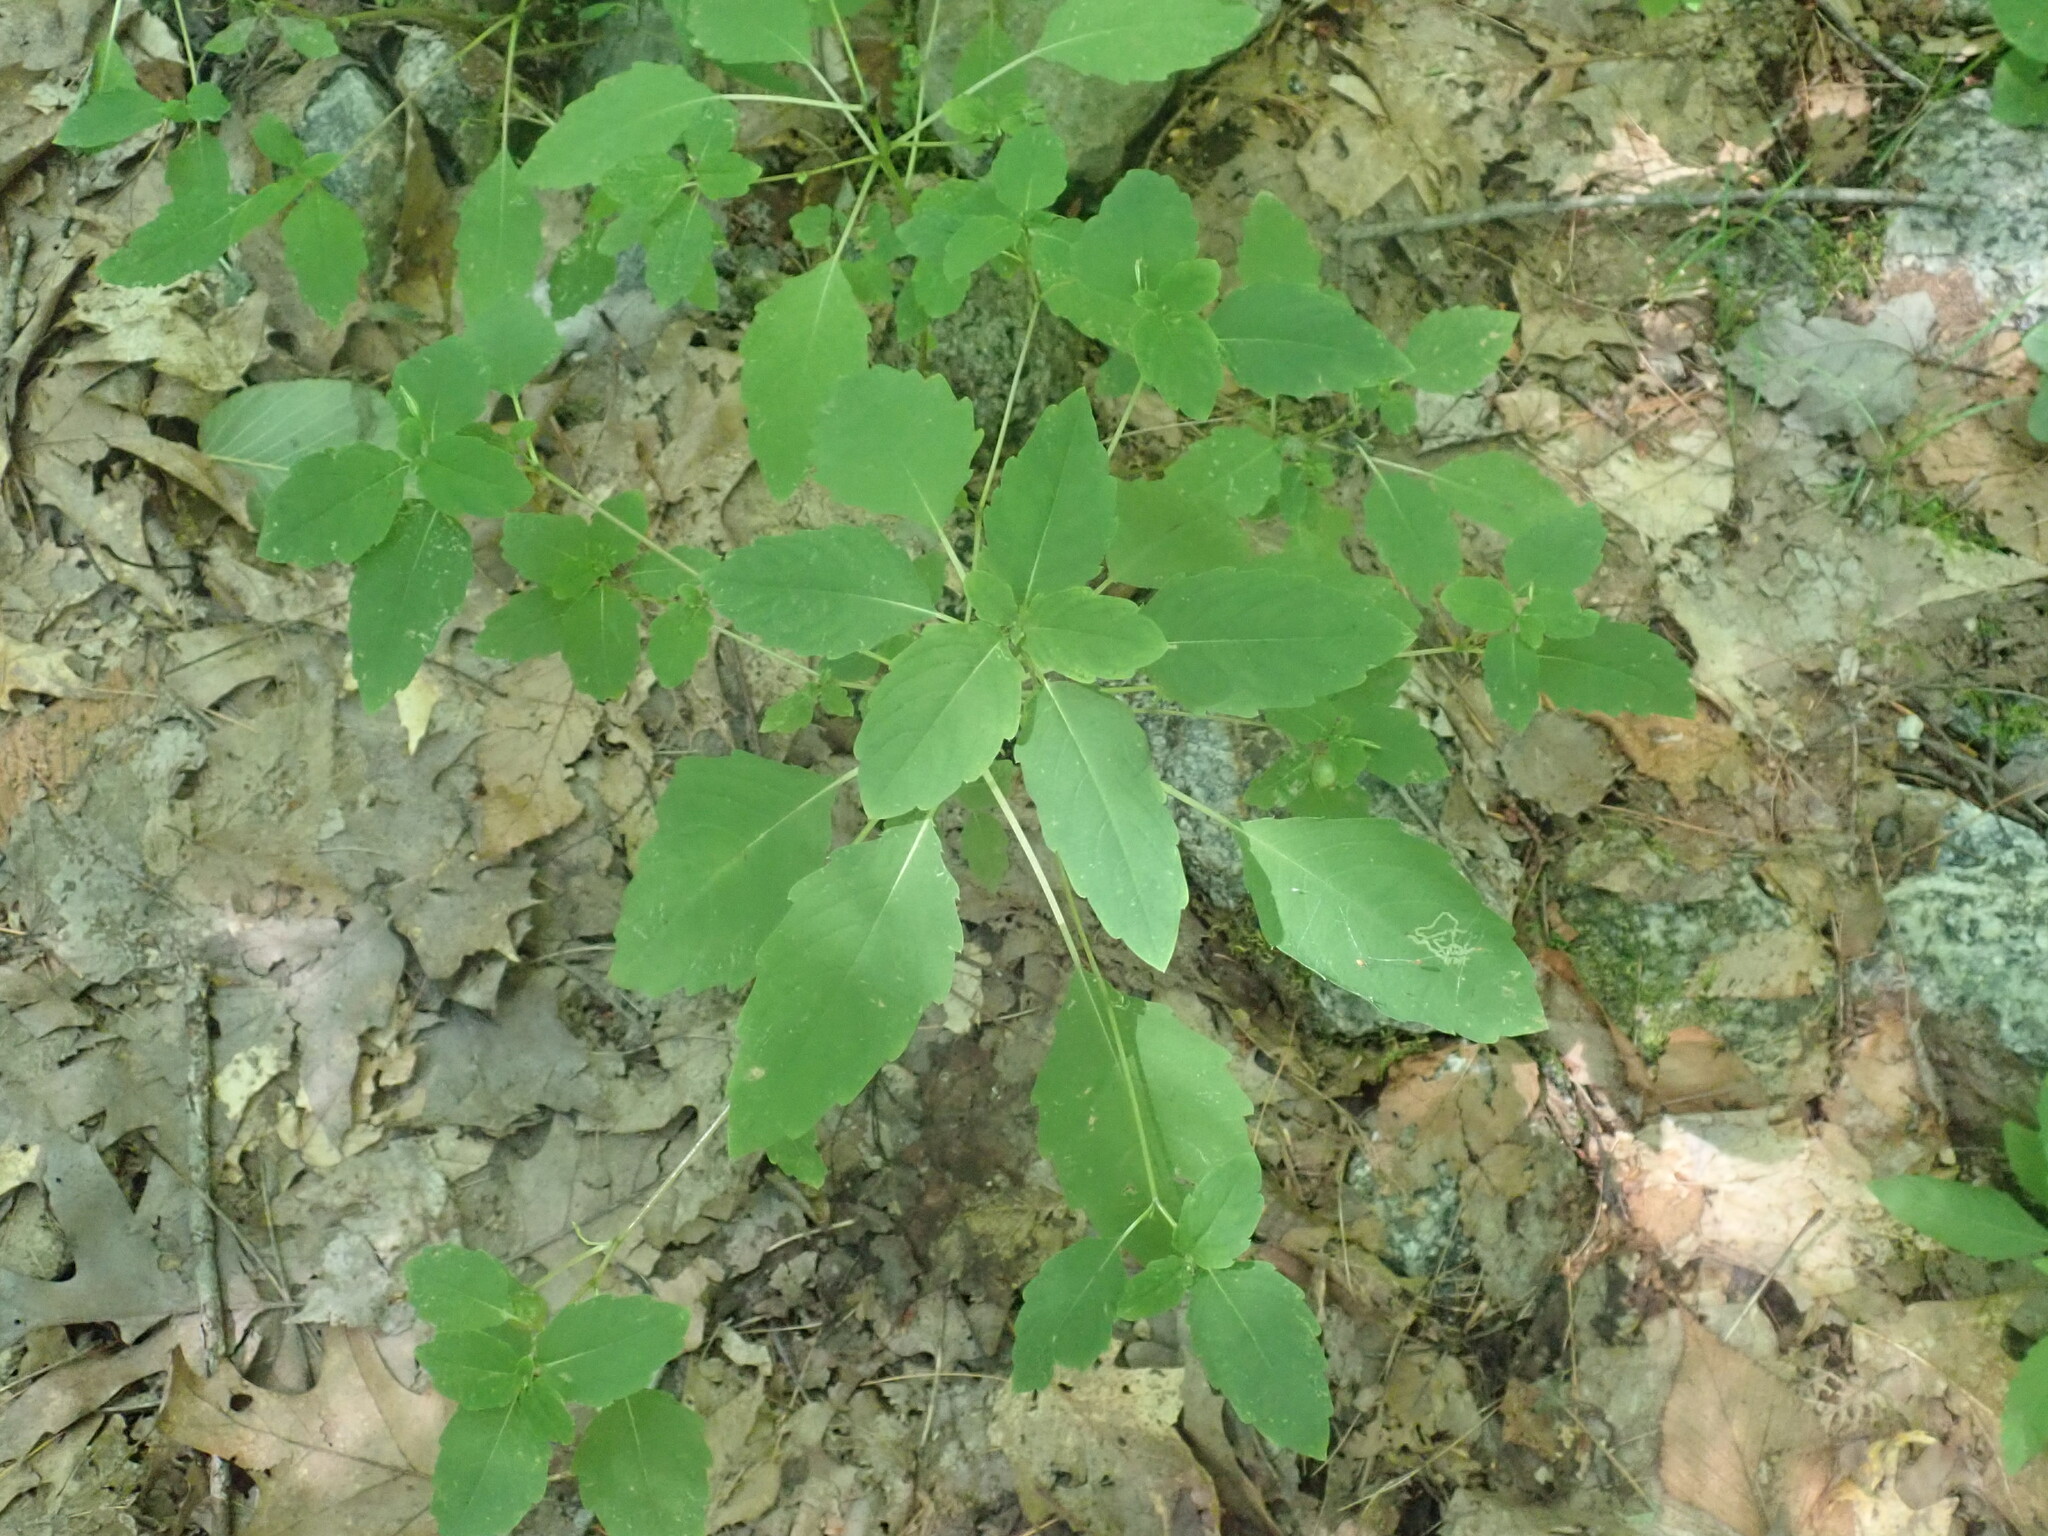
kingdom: Plantae
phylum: Tracheophyta
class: Magnoliopsida
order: Ericales
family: Balsaminaceae
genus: Impatiens
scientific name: Impatiens
